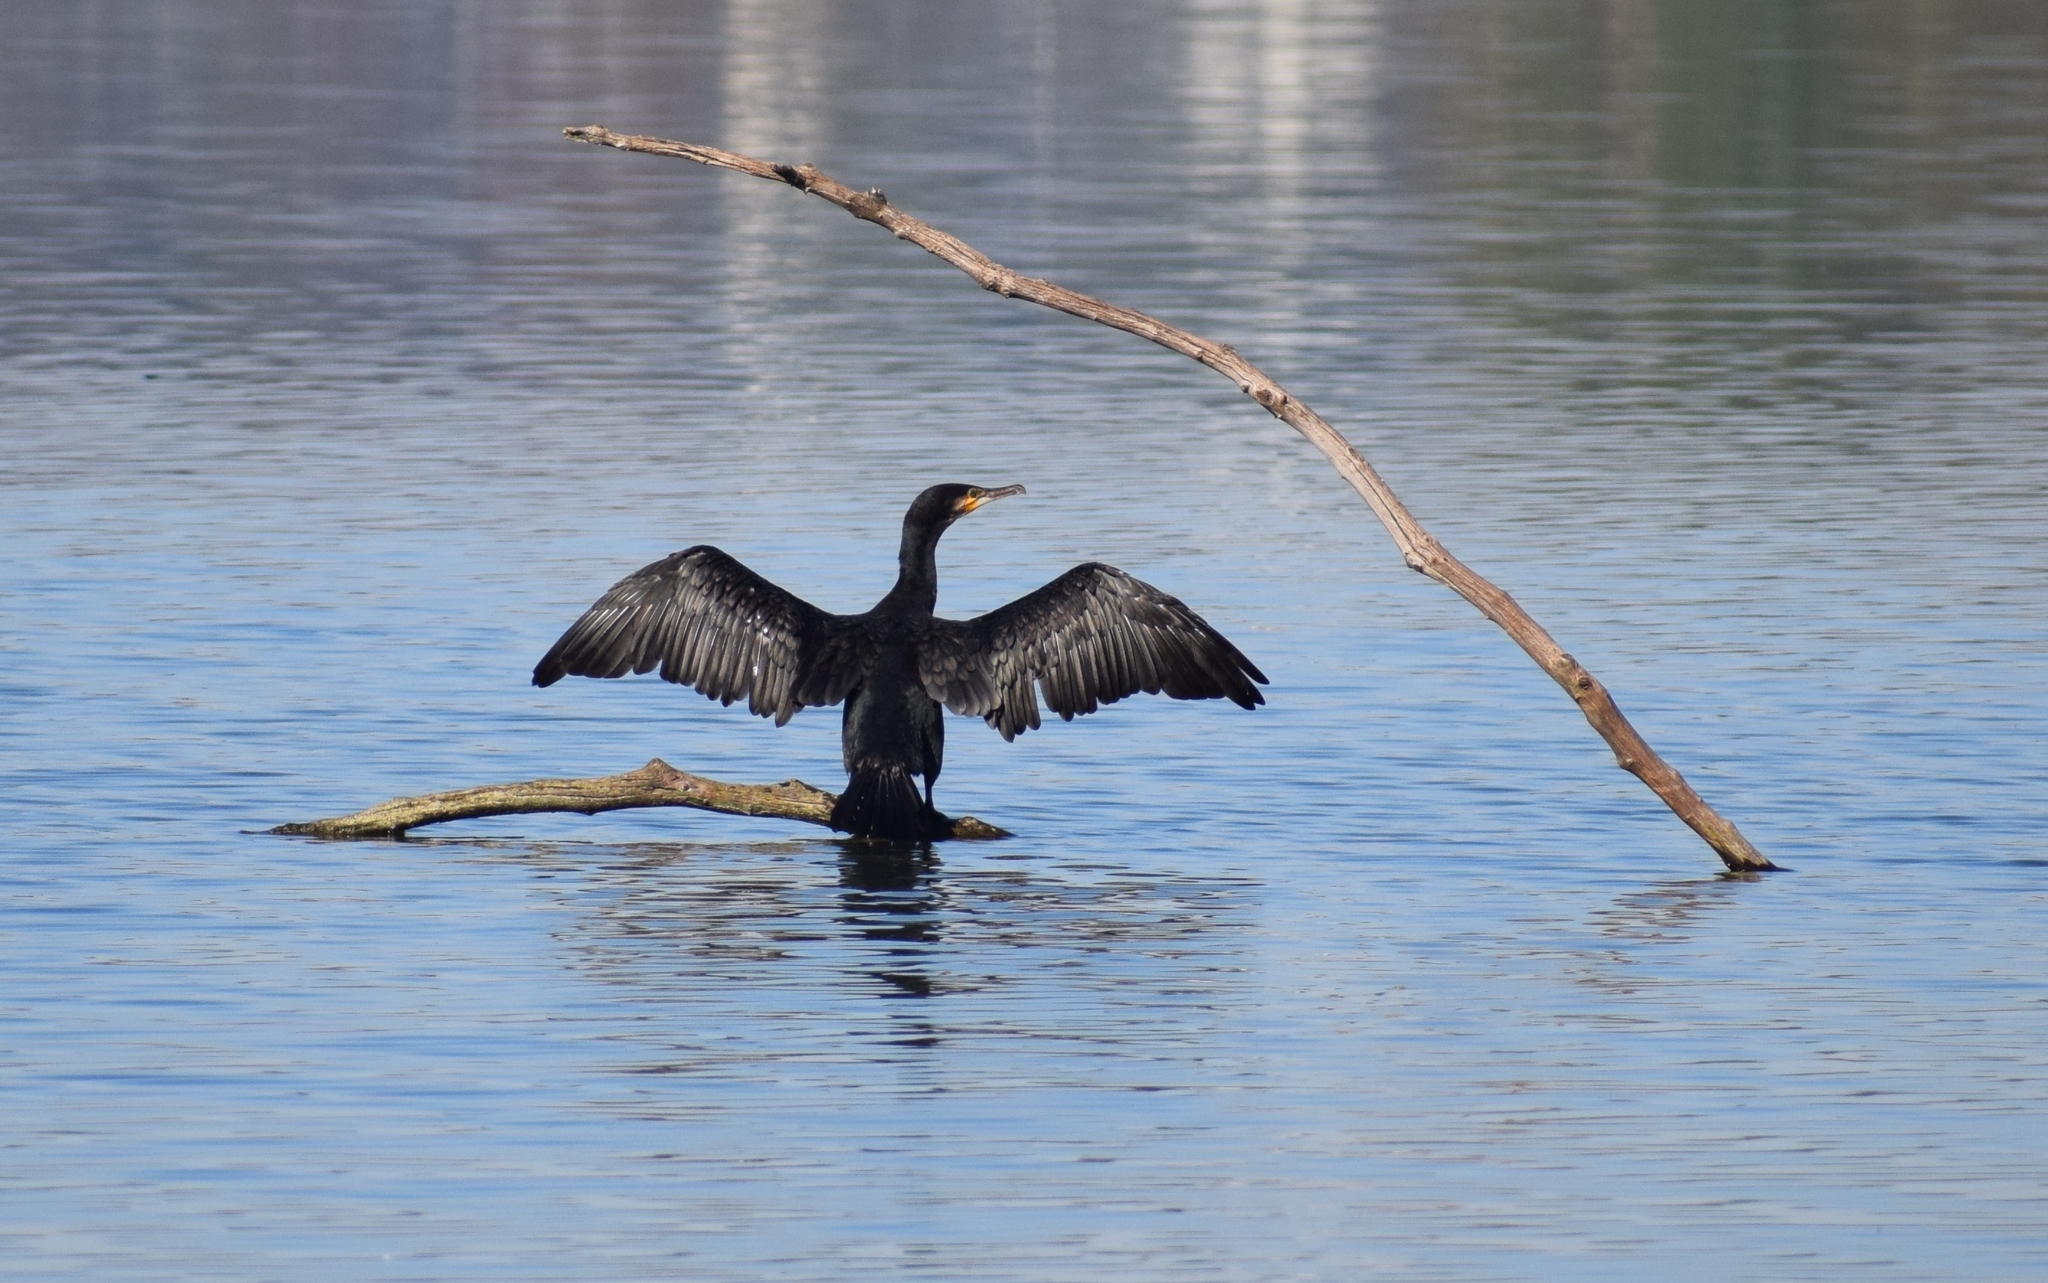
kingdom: Animalia
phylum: Chordata
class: Aves
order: Suliformes
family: Phalacrocoracidae
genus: Phalacrocorax
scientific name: Phalacrocorax carbo
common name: Great cormorant
